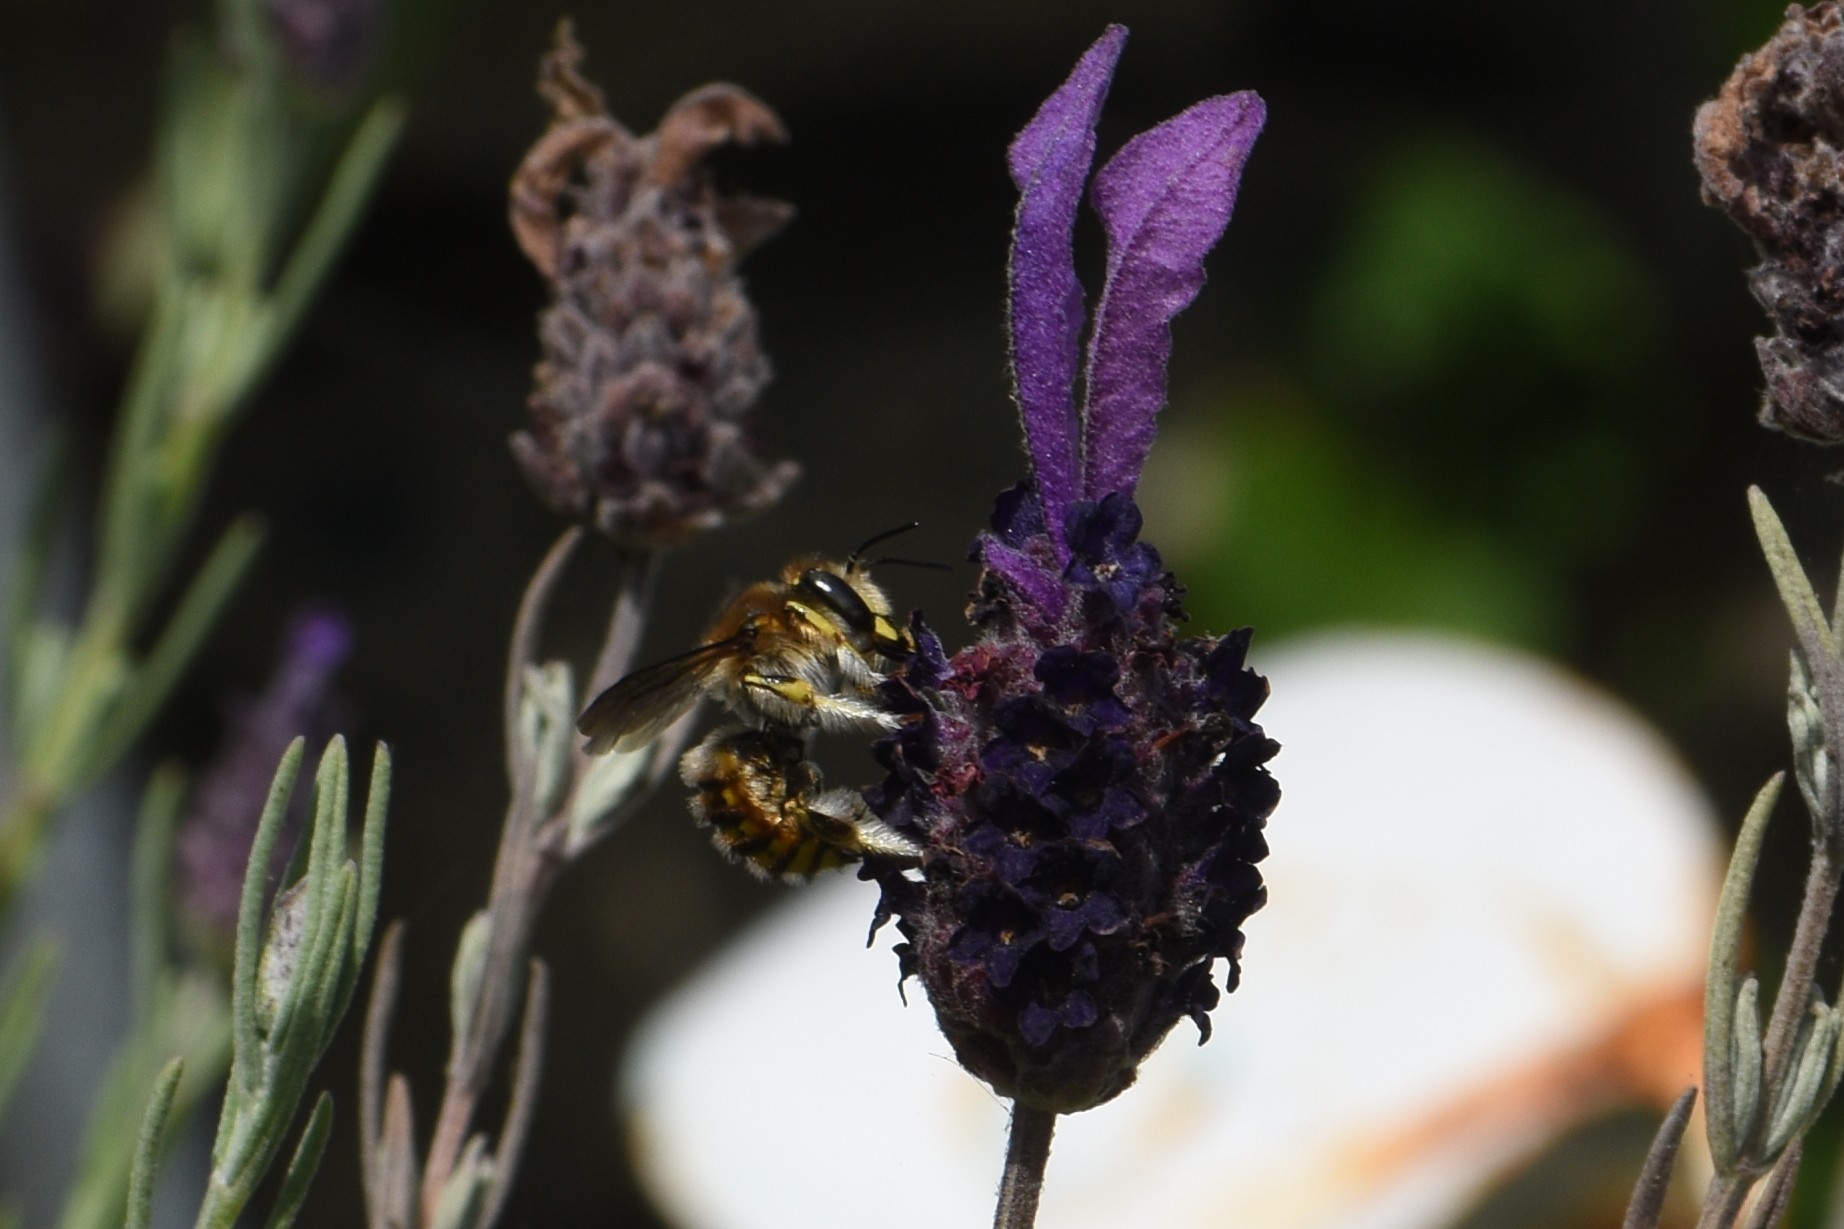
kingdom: Animalia
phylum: Arthropoda
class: Insecta
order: Hymenoptera
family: Megachilidae
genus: Anthidium
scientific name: Anthidium manicatum
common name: Wool carder bee
